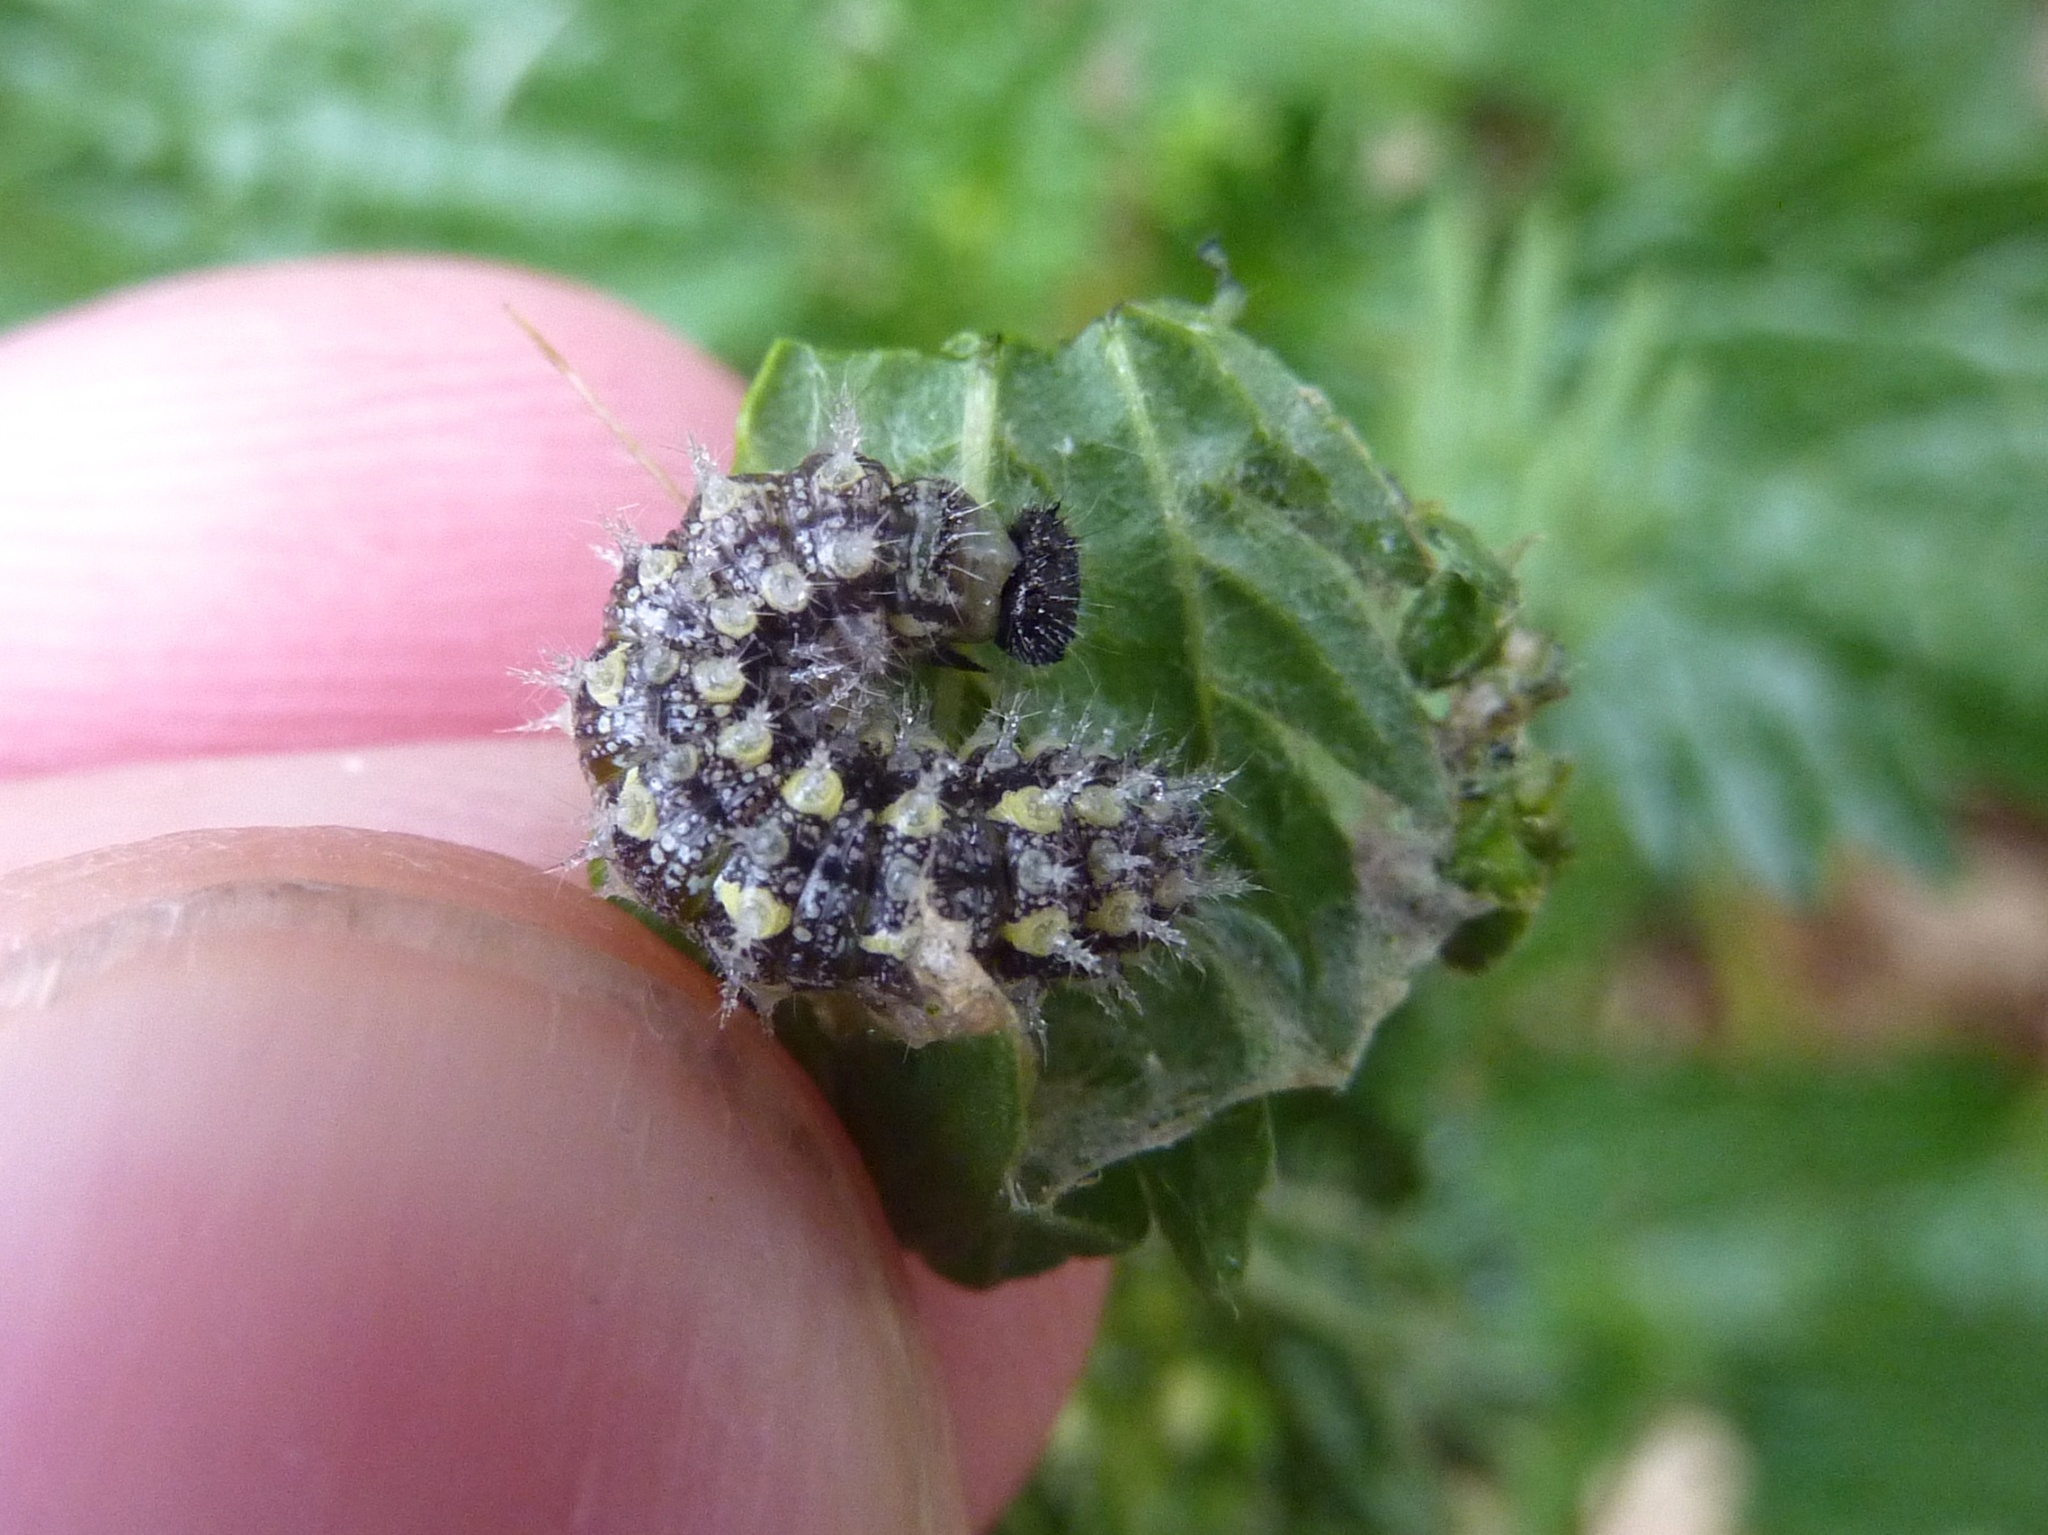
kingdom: Animalia
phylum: Arthropoda
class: Insecta
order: Lepidoptera
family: Nymphalidae
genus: Vanessa
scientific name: Vanessa itea
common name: Yellow admiral
